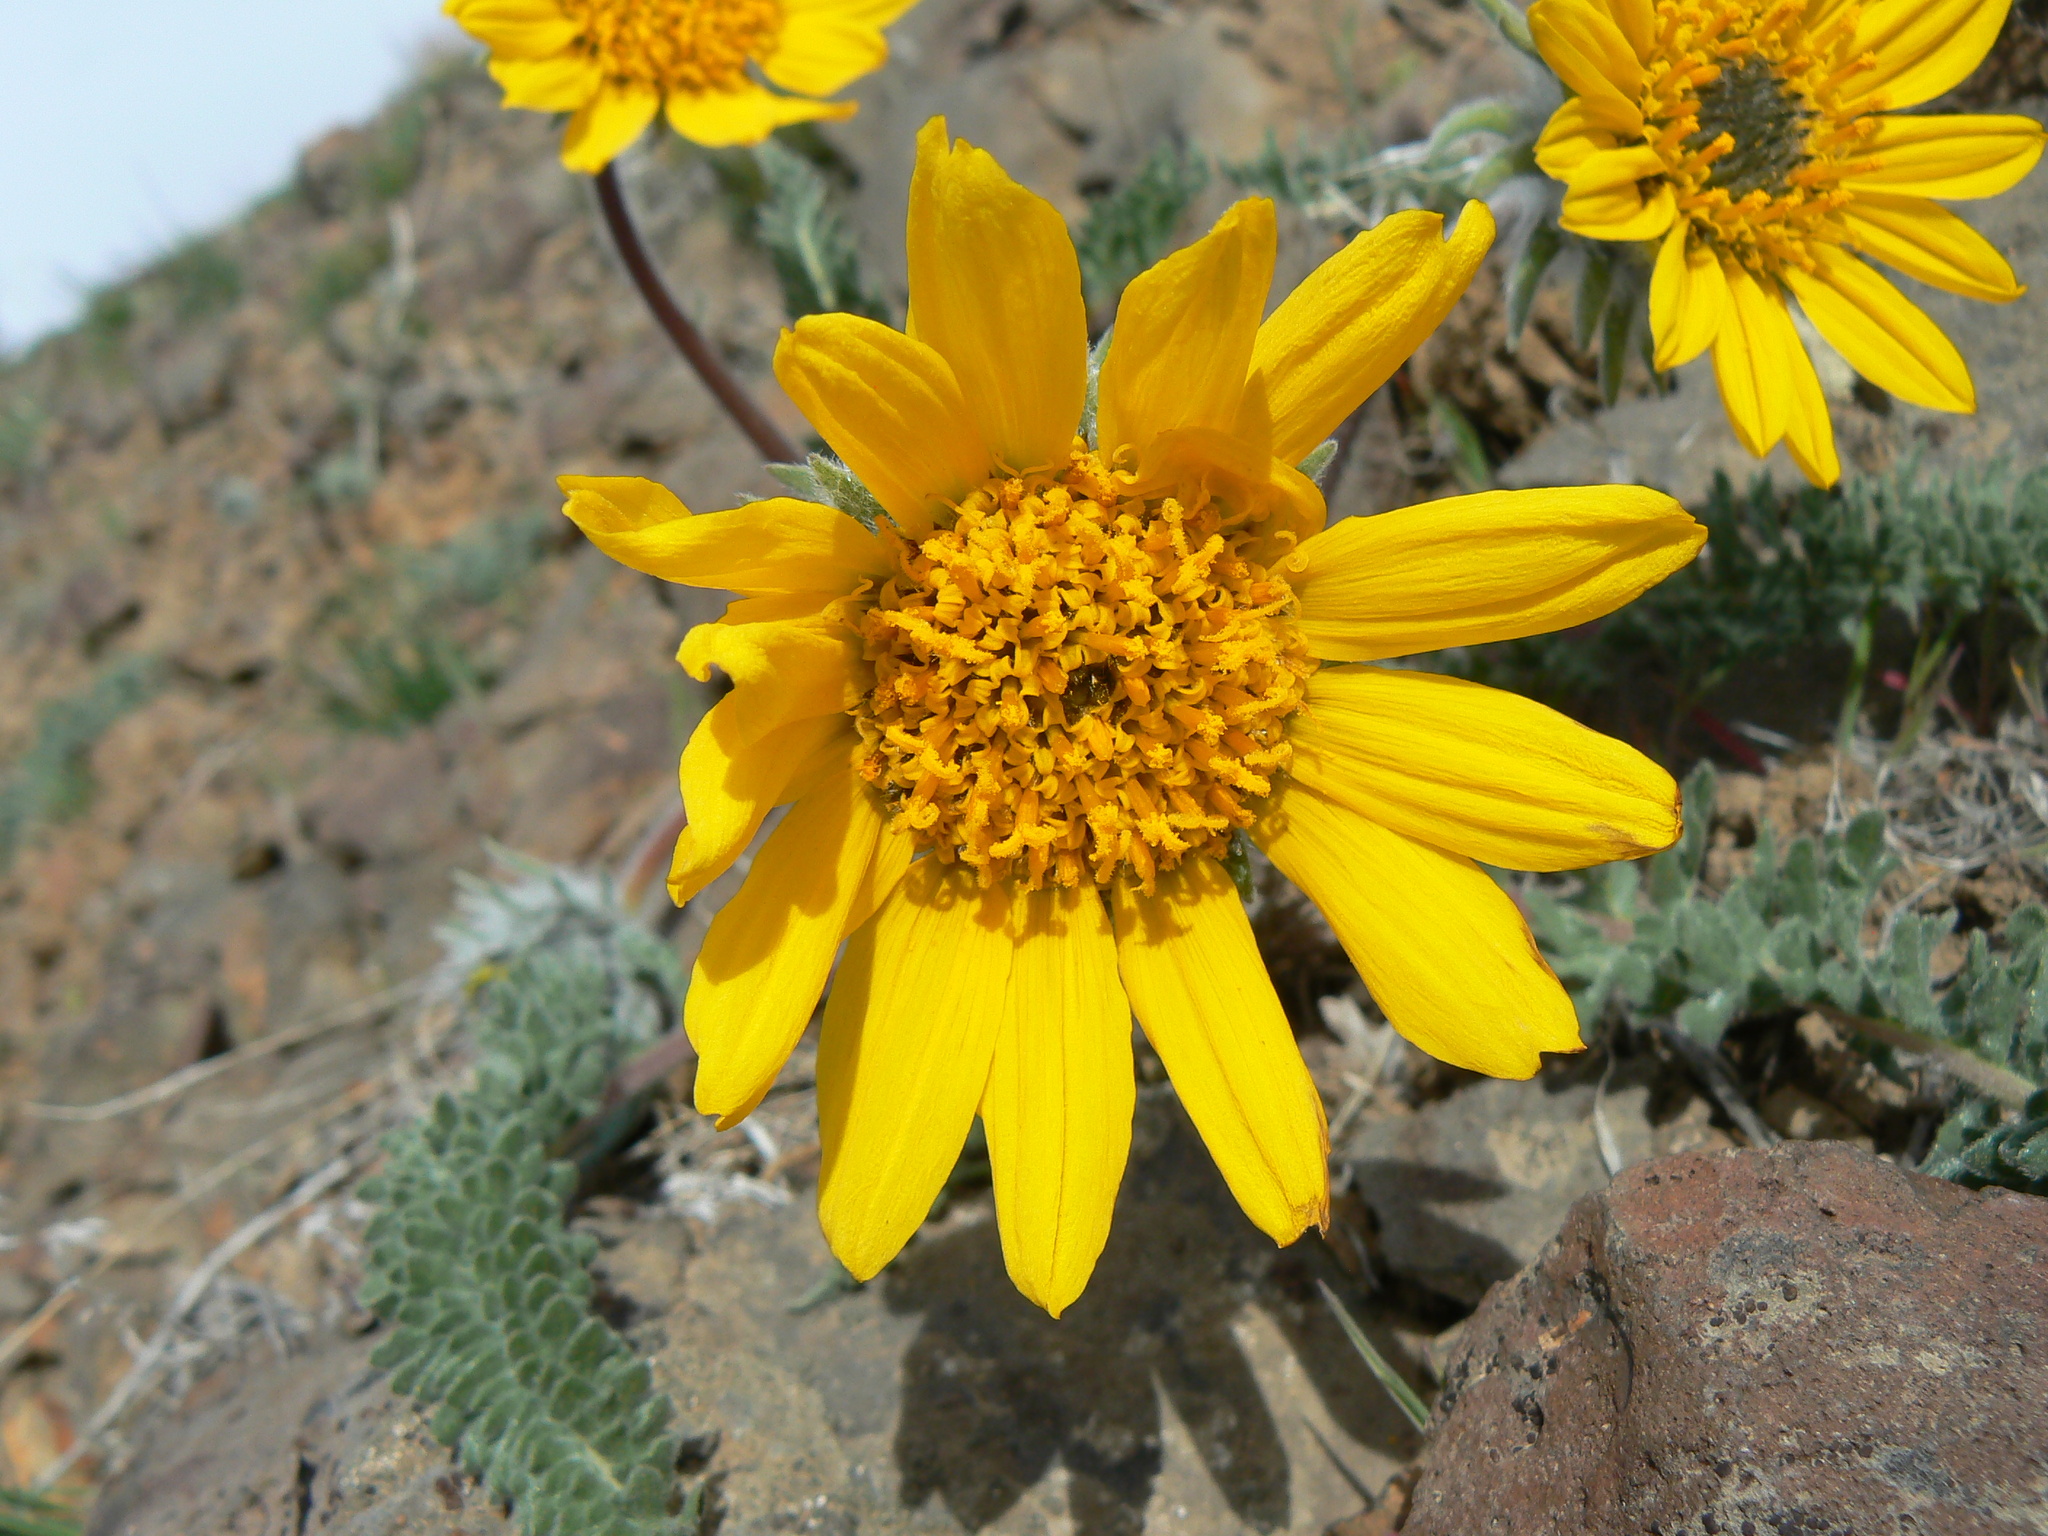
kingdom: Plantae
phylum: Tracheophyta
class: Magnoliopsida
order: Asterales
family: Asteraceae
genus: Balsamorhiza
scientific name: Balsamorhiza hookeri
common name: Hooker's balsamroot
